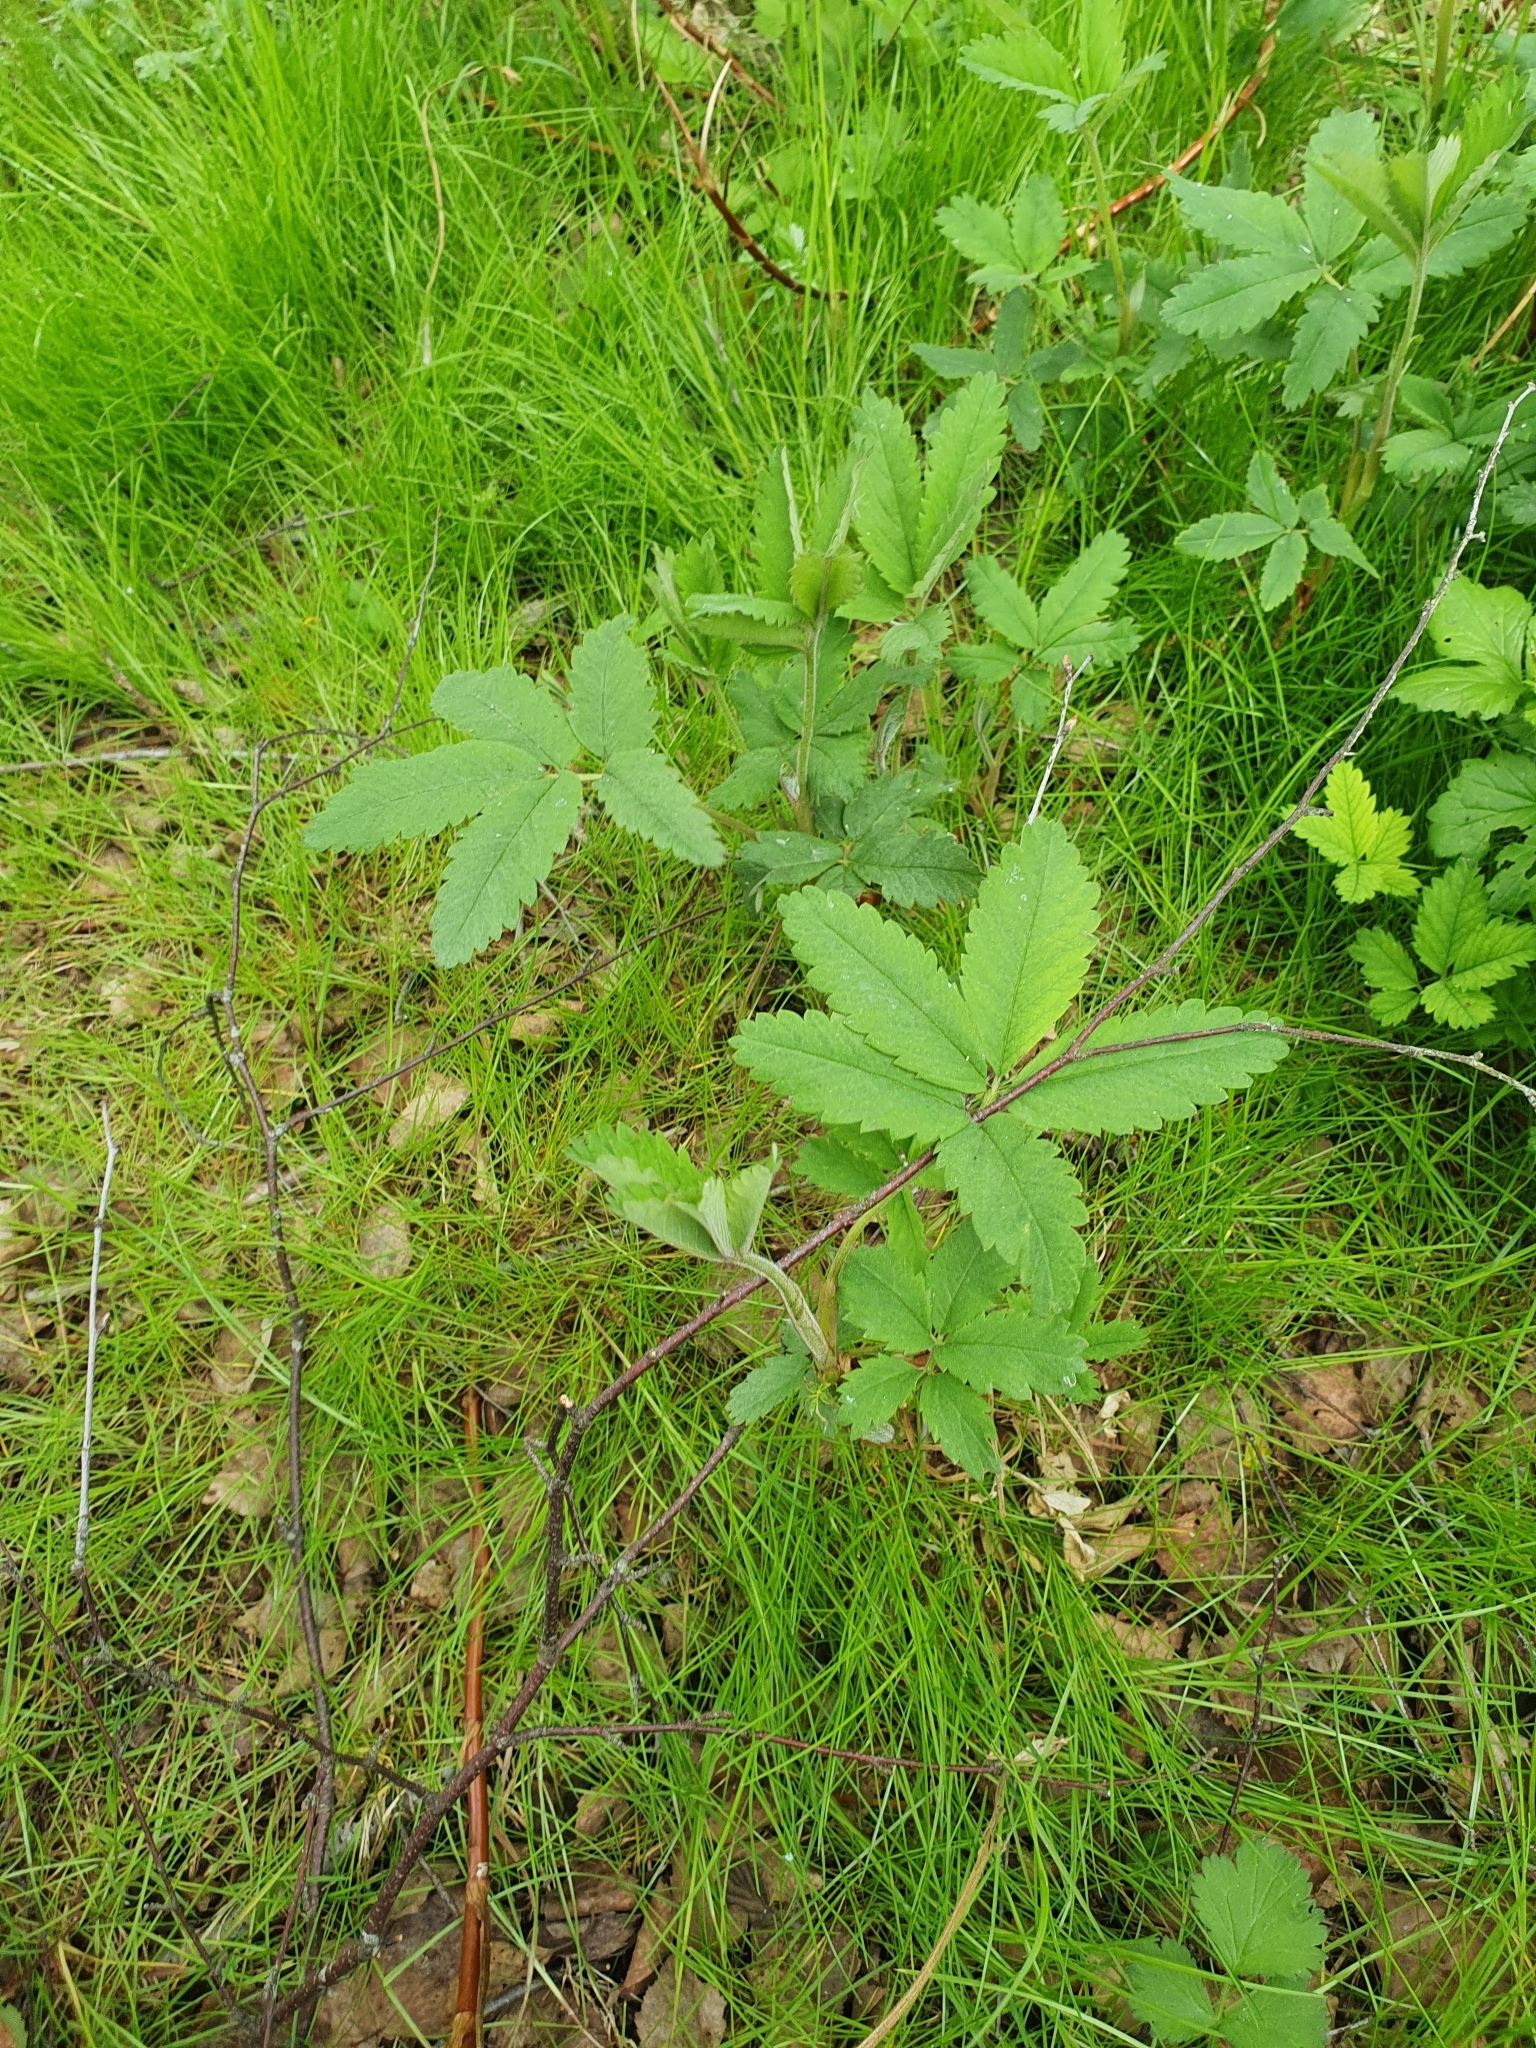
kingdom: Plantae
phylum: Tracheophyta
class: Magnoliopsida
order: Rosales
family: Rosaceae
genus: Comarum
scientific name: Comarum palustre
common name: Marsh cinquefoil
